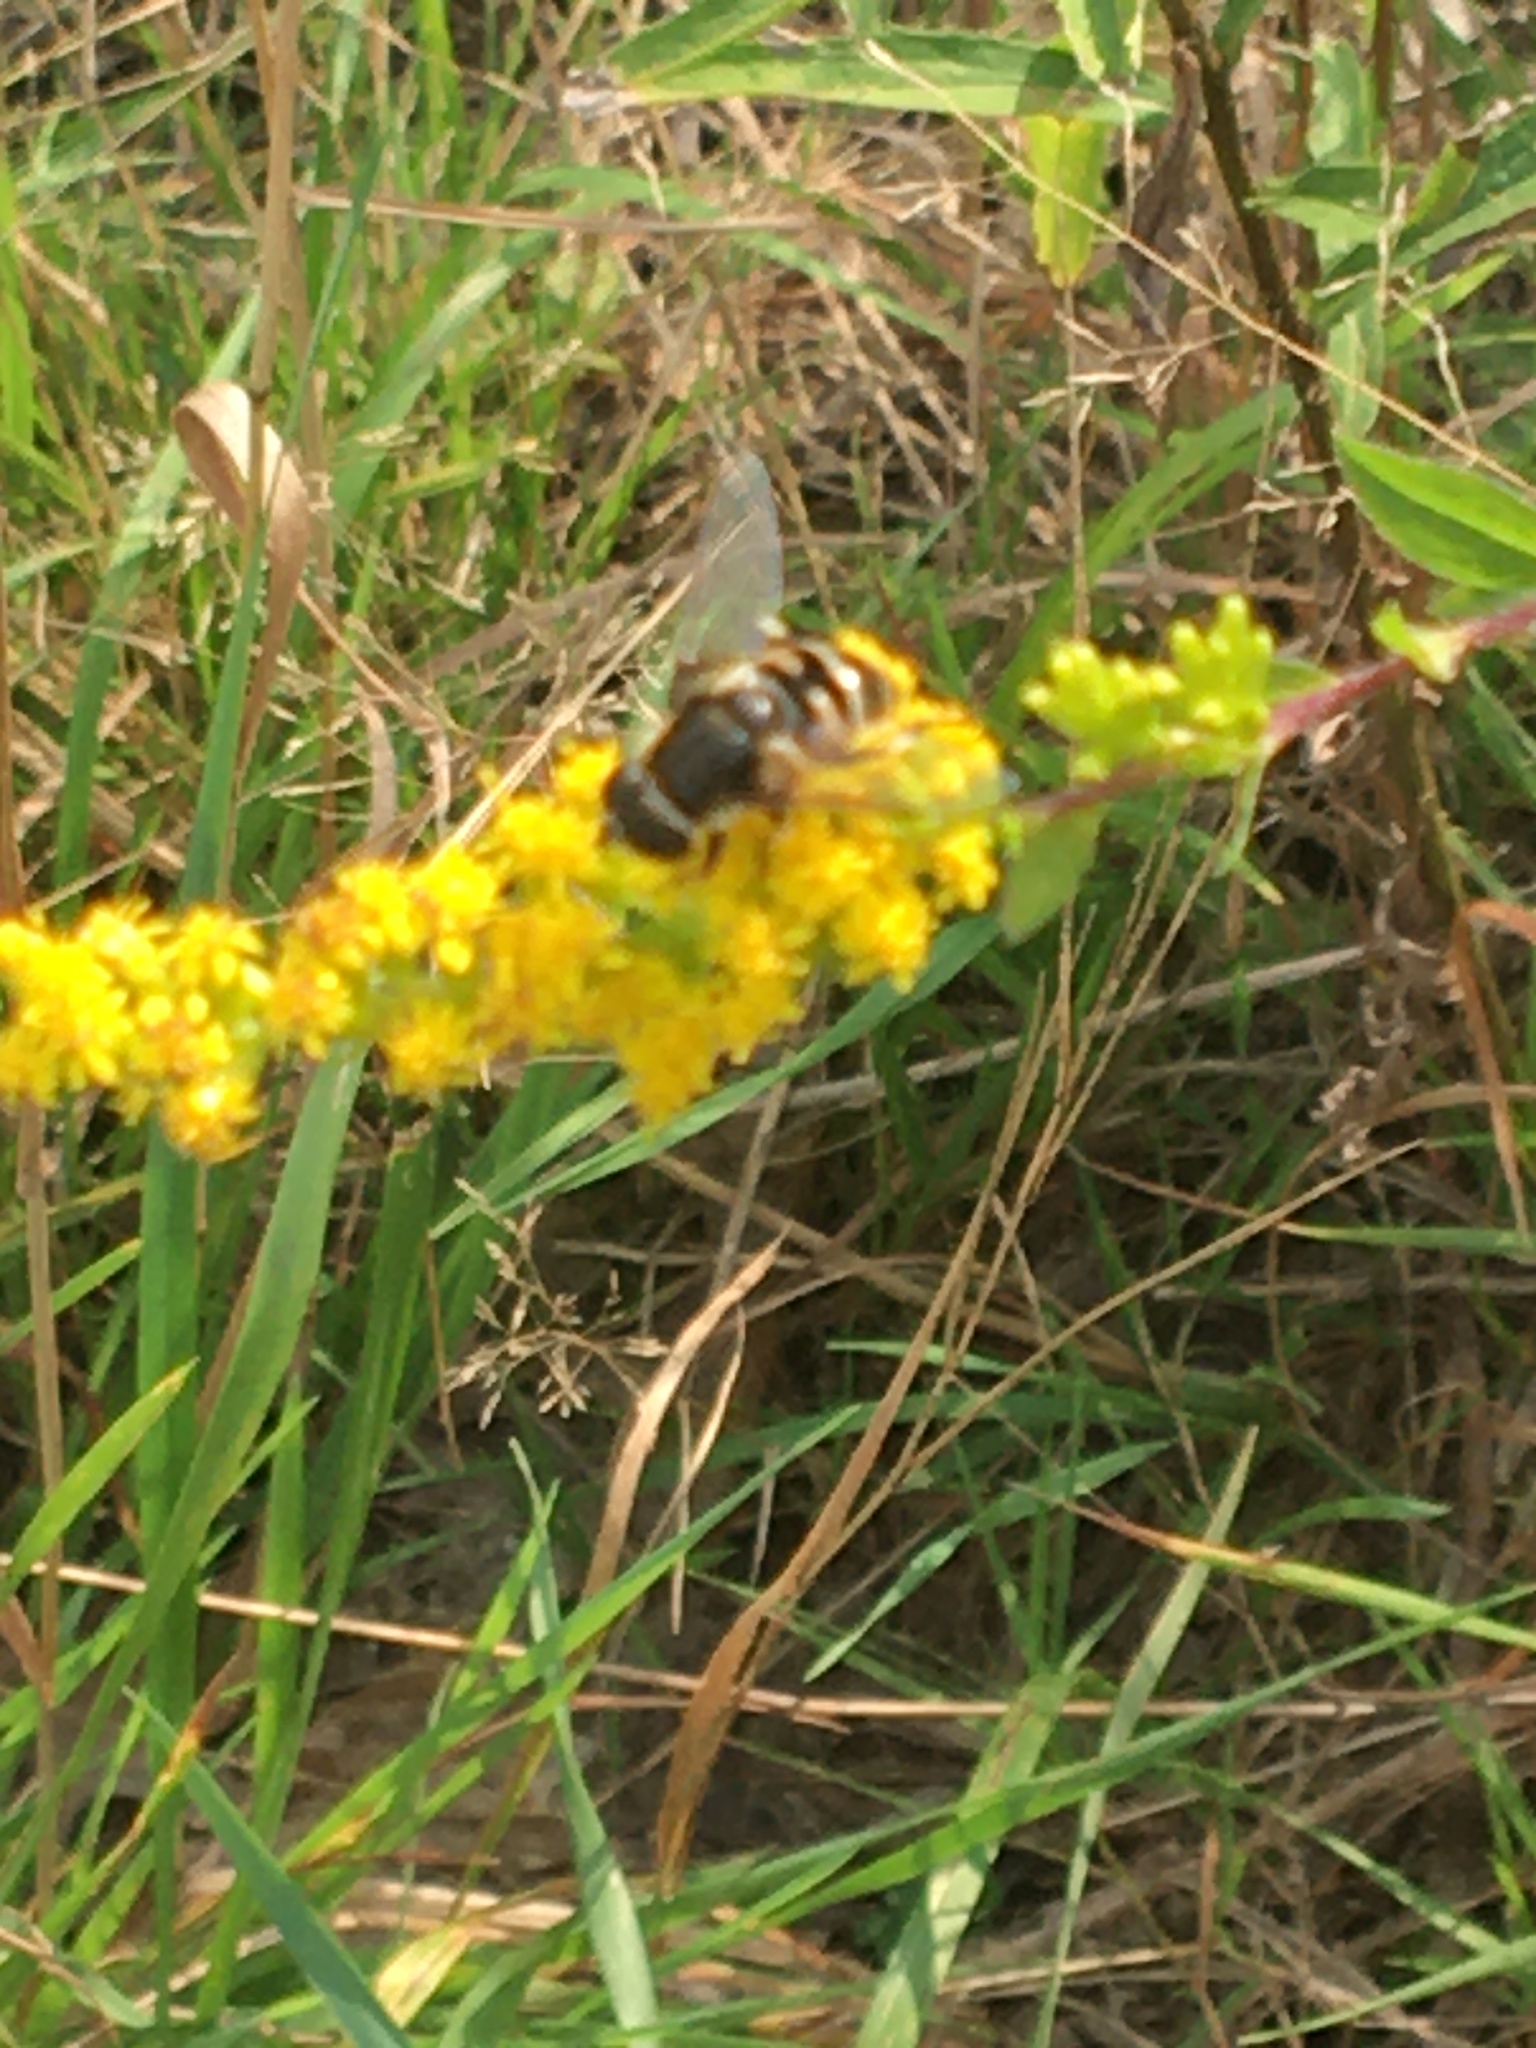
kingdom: Animalia
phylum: Arthropoda
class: Insecta
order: Diptera
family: Syrphidae
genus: Eristalis
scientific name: Eristalis dimidiata
